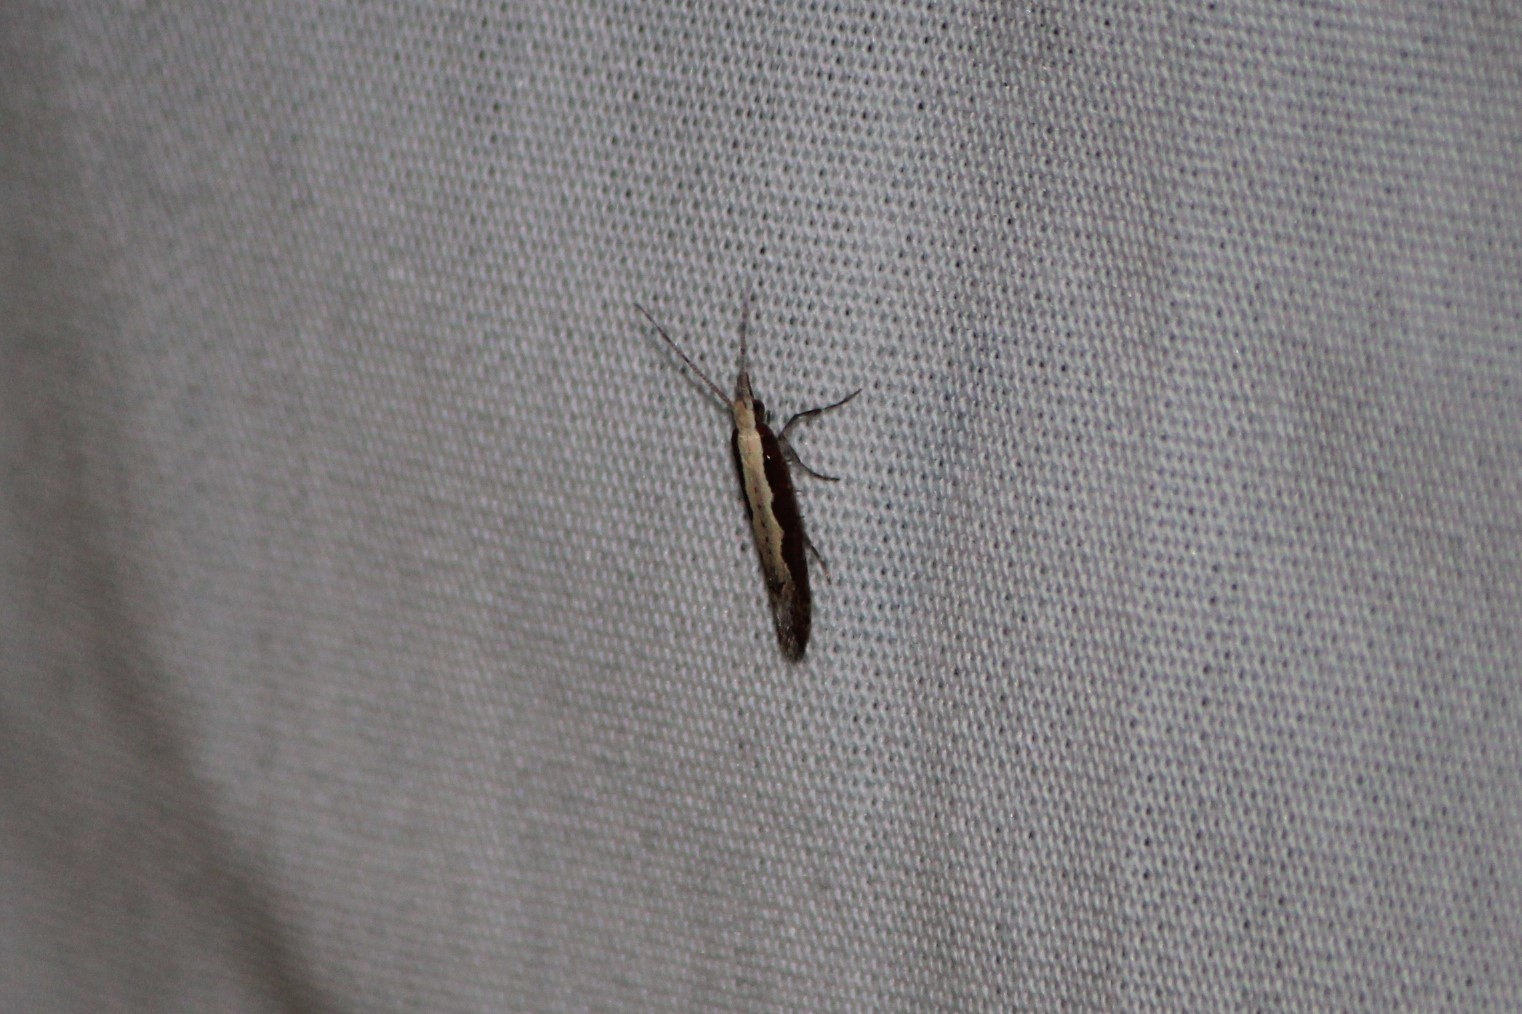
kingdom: Animalia
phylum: Arthropoda
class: Insecta
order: Lepidoptera
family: Plutellidae
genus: Plutella
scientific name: Plutella xylostella
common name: Diamond-back moth
